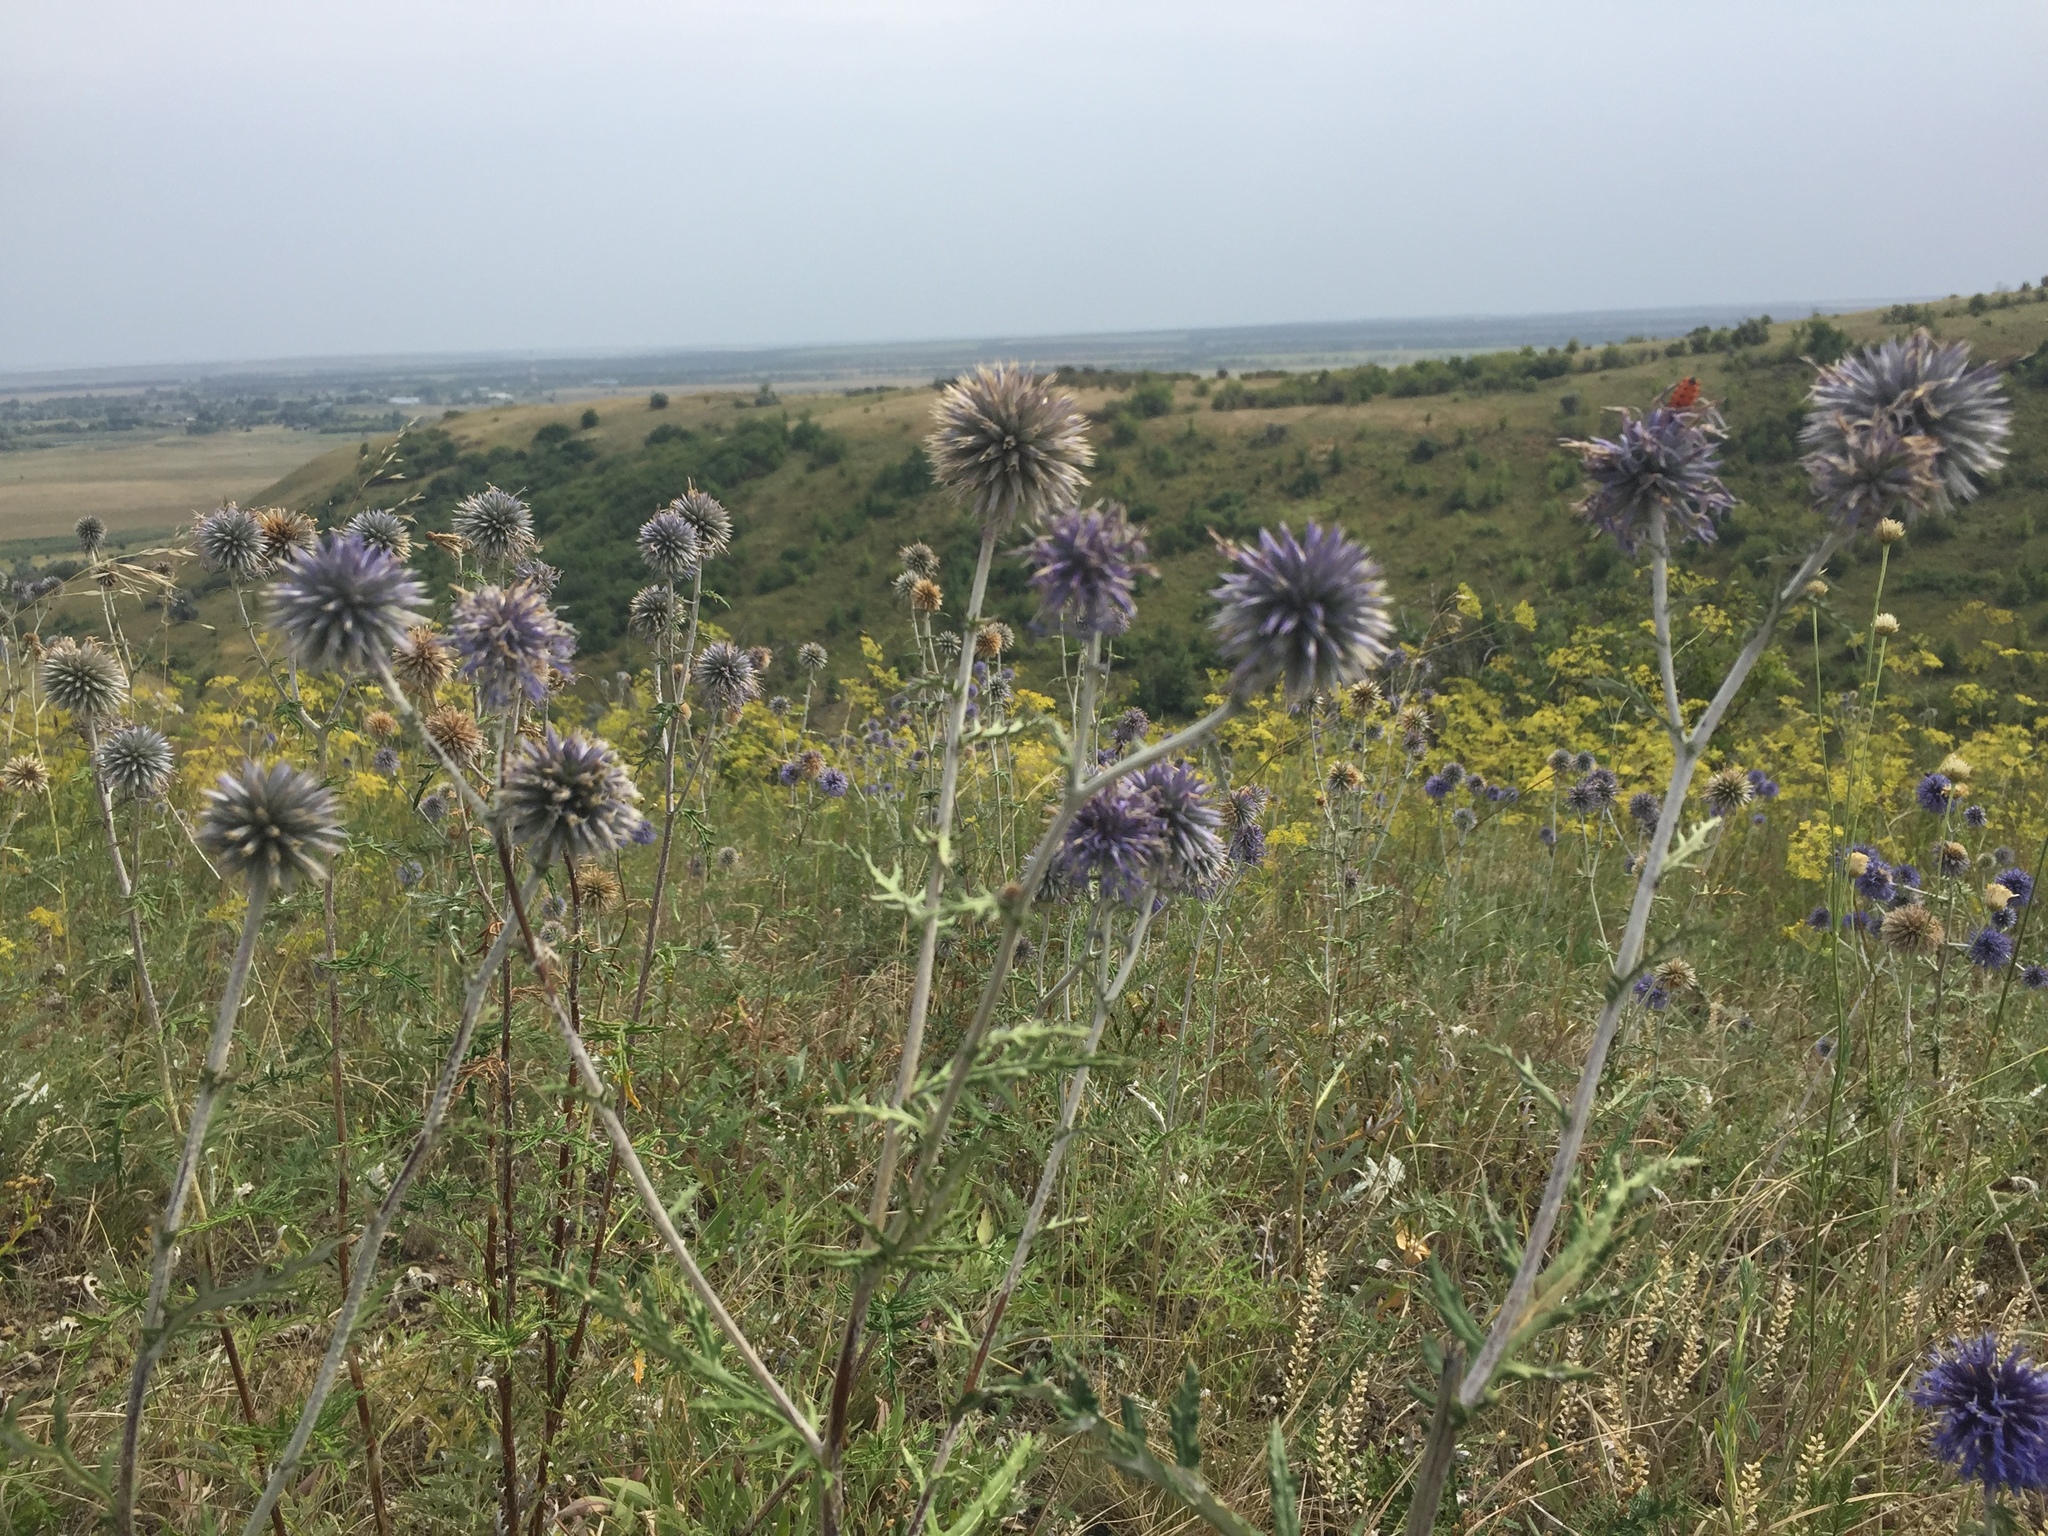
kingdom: Plantae
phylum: Tracheophyta
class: Magnoliopsida
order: Asterales
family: Asteraceae
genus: Echinops
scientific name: Echinops ritro
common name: Globe thistle
